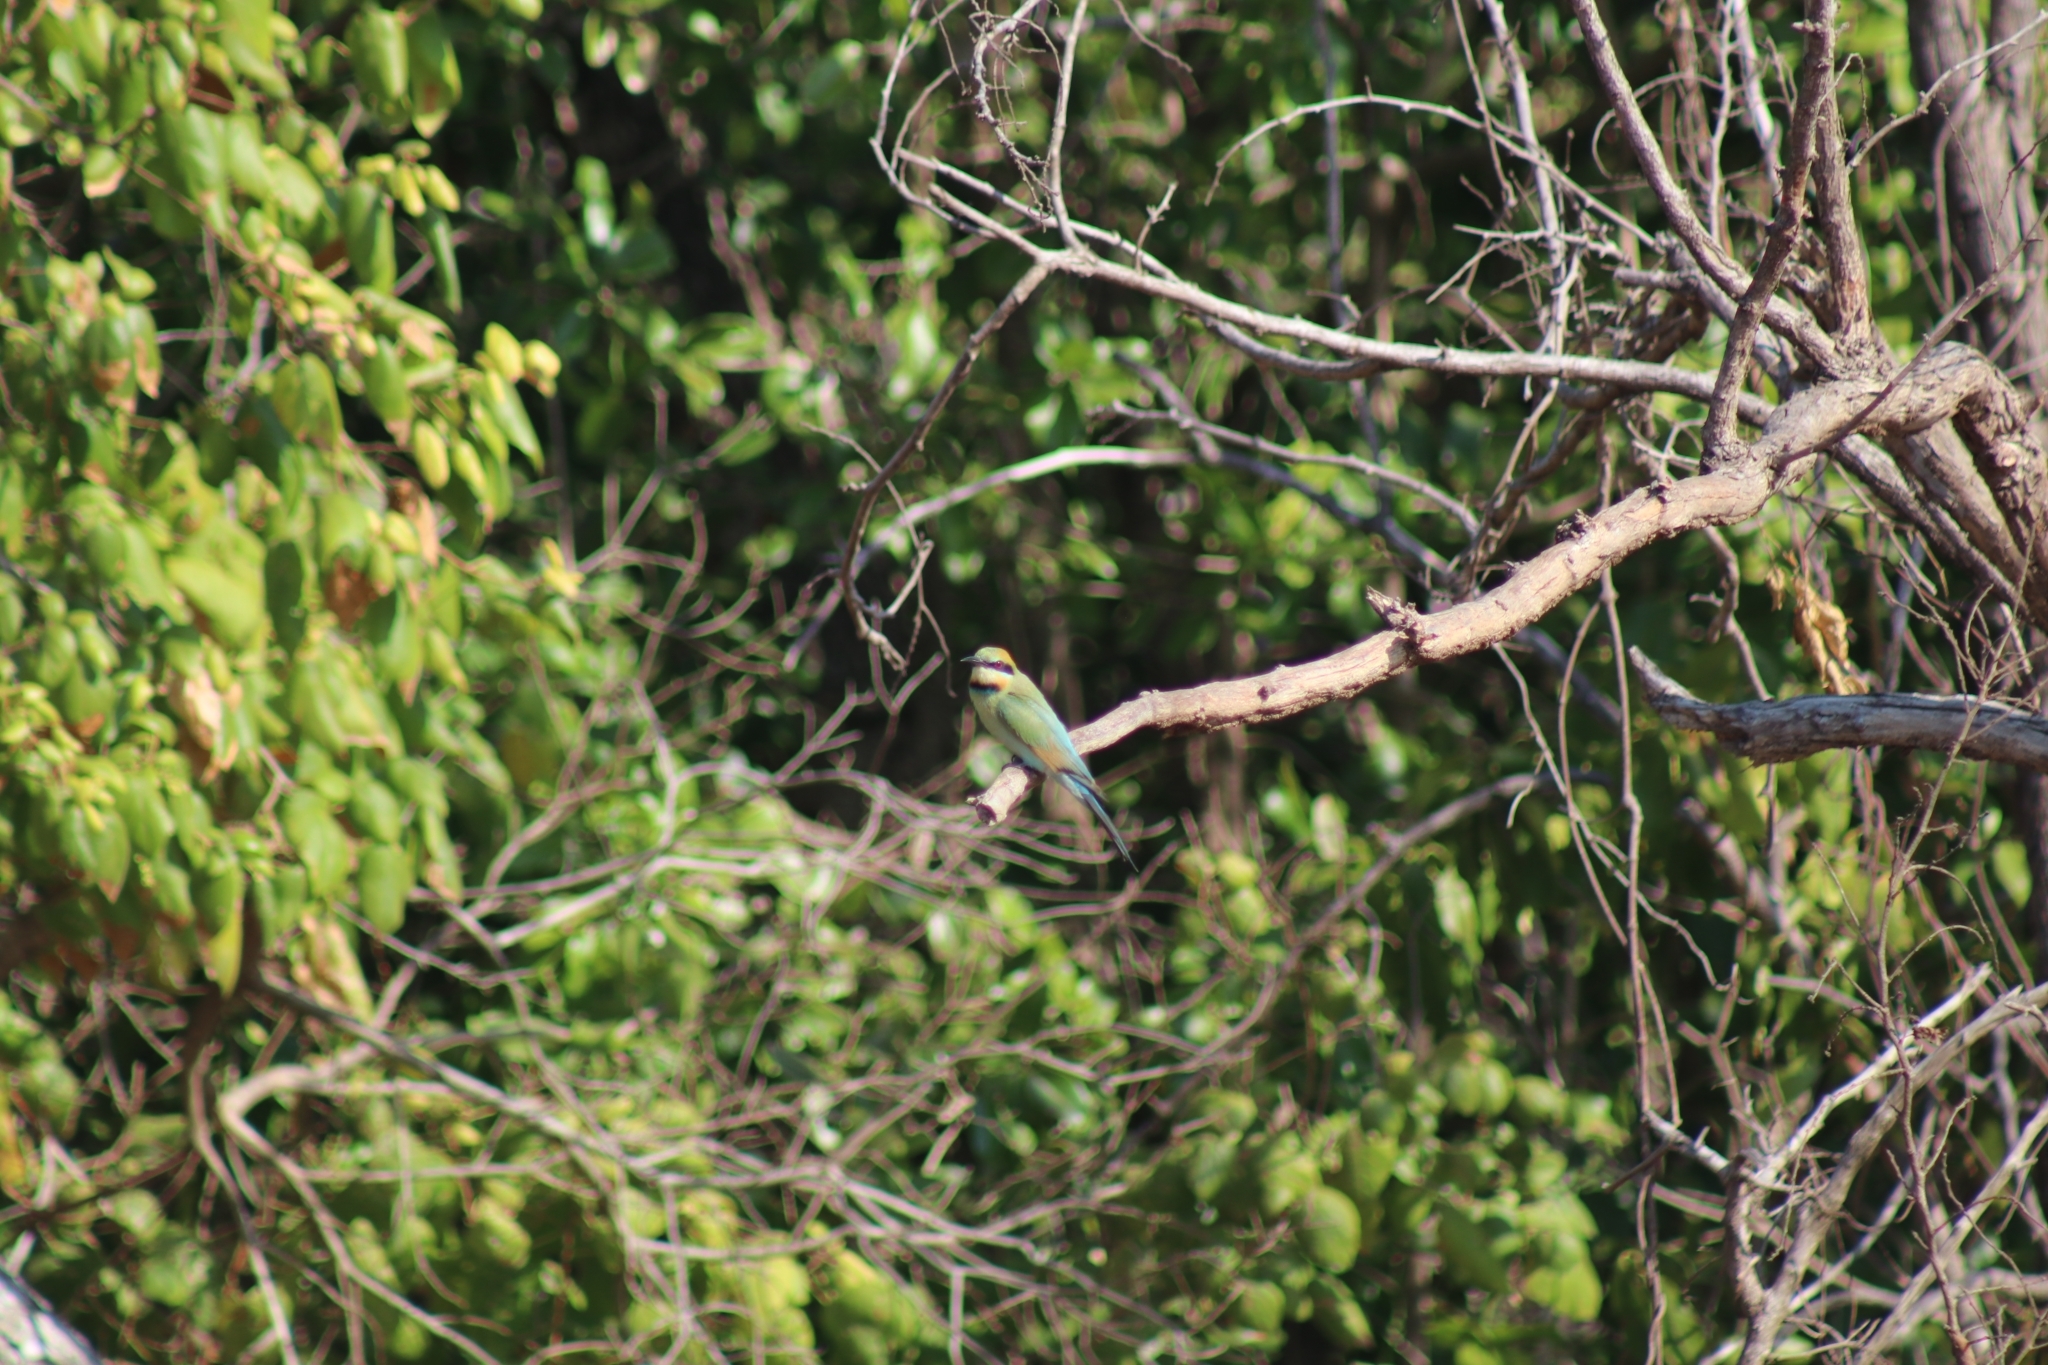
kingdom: Animalia
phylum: Chordata
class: Aves
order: Coraciiformes
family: Meropidae
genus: Merops
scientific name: Merops ornatus
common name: Rainbow bee-eater
